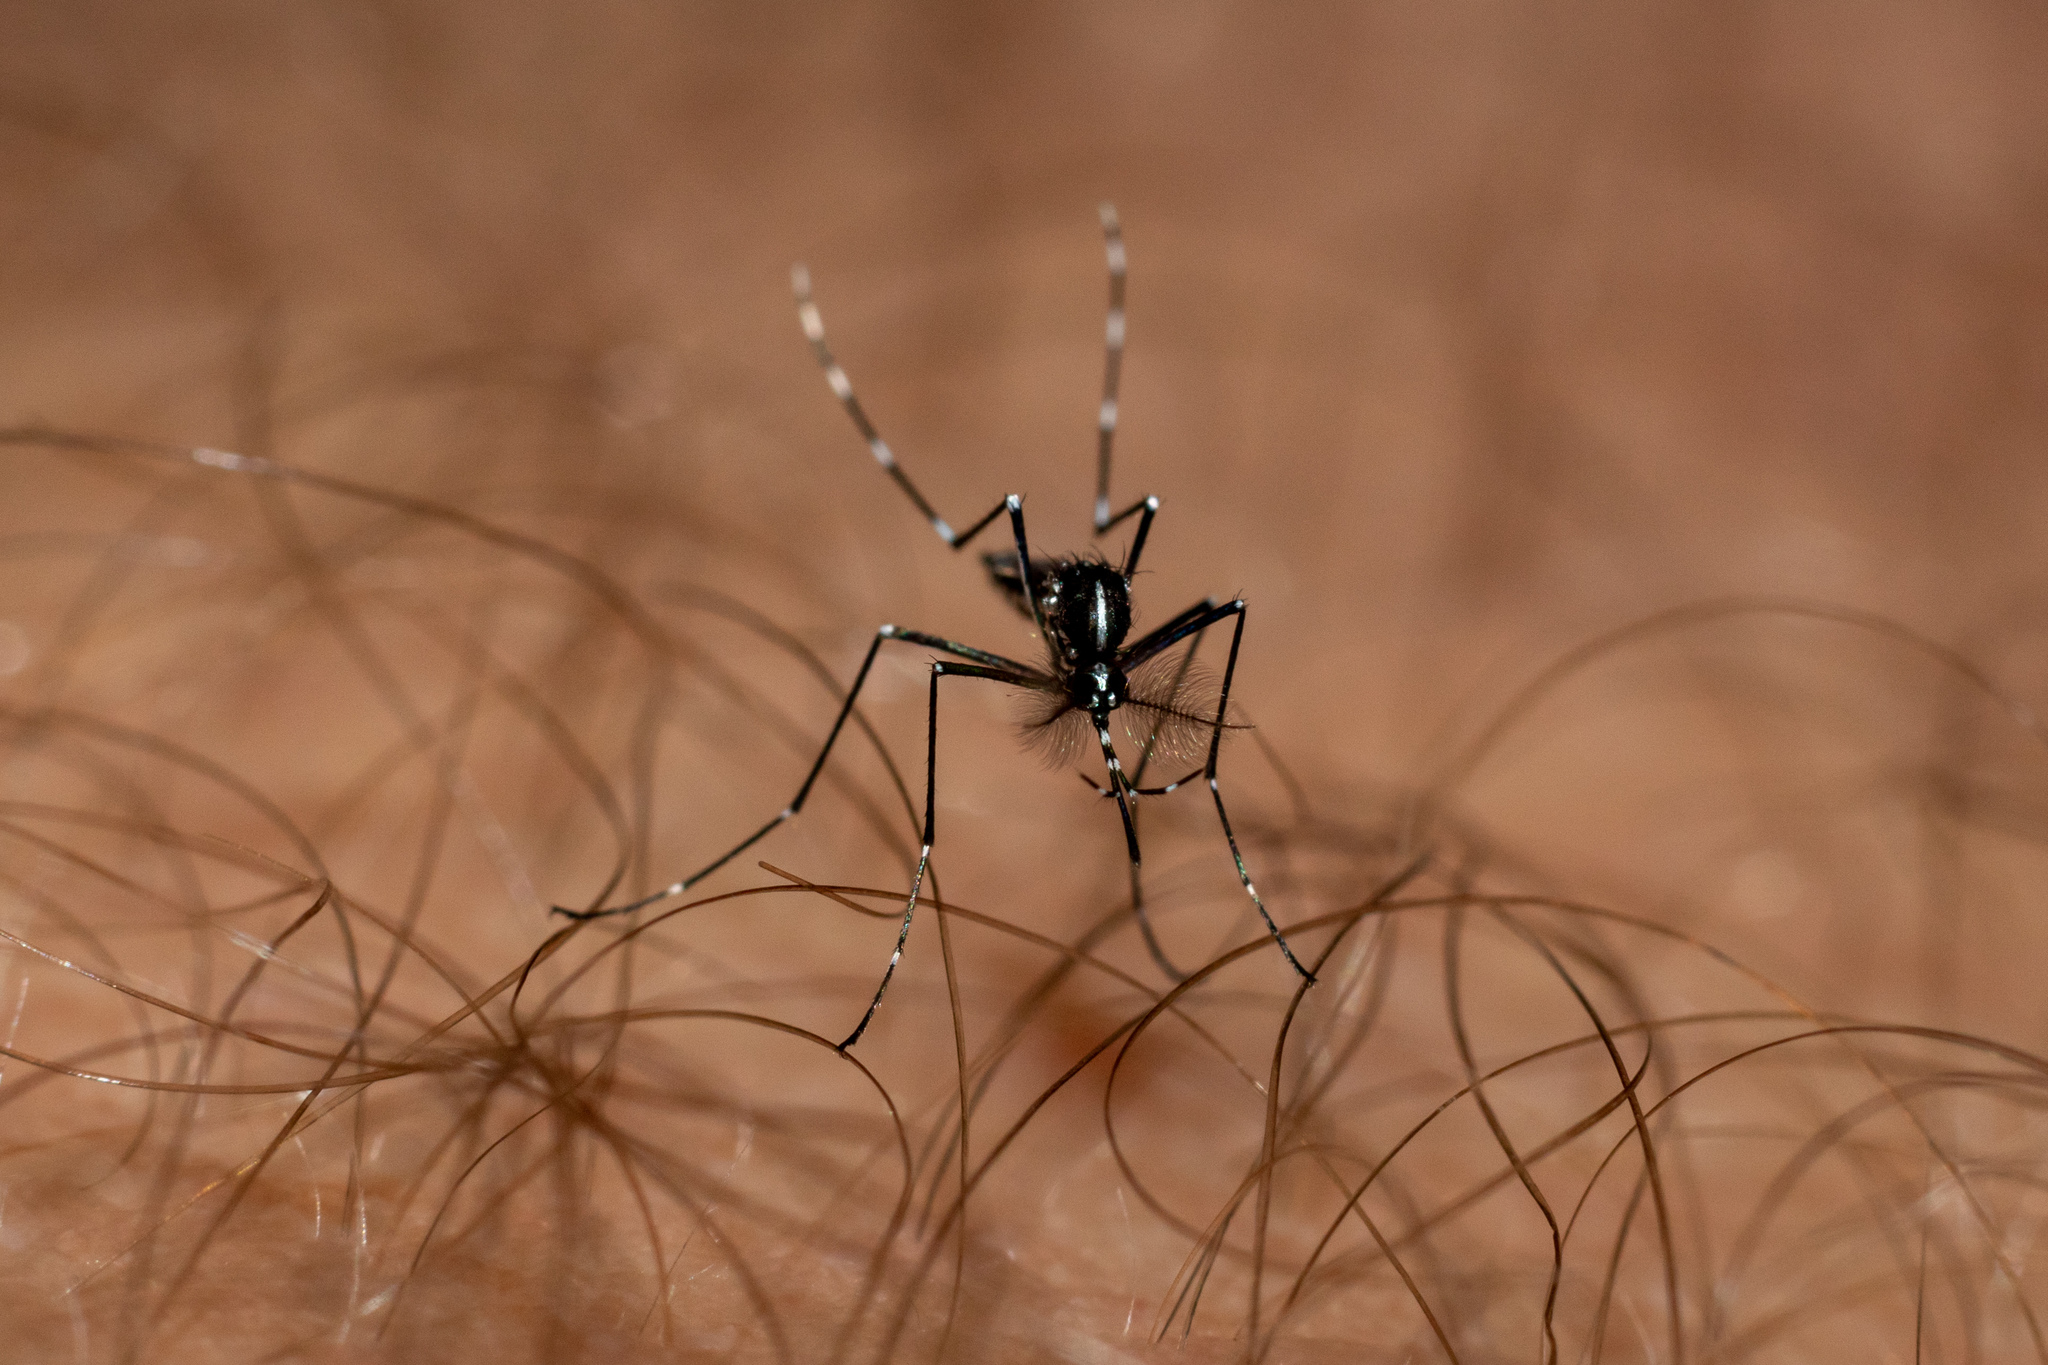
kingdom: Animalia
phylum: Arthropoda
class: Insecta
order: Diptera
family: Culicidae
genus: Aedes
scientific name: Aedes albopictus
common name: Tiger mosquito
